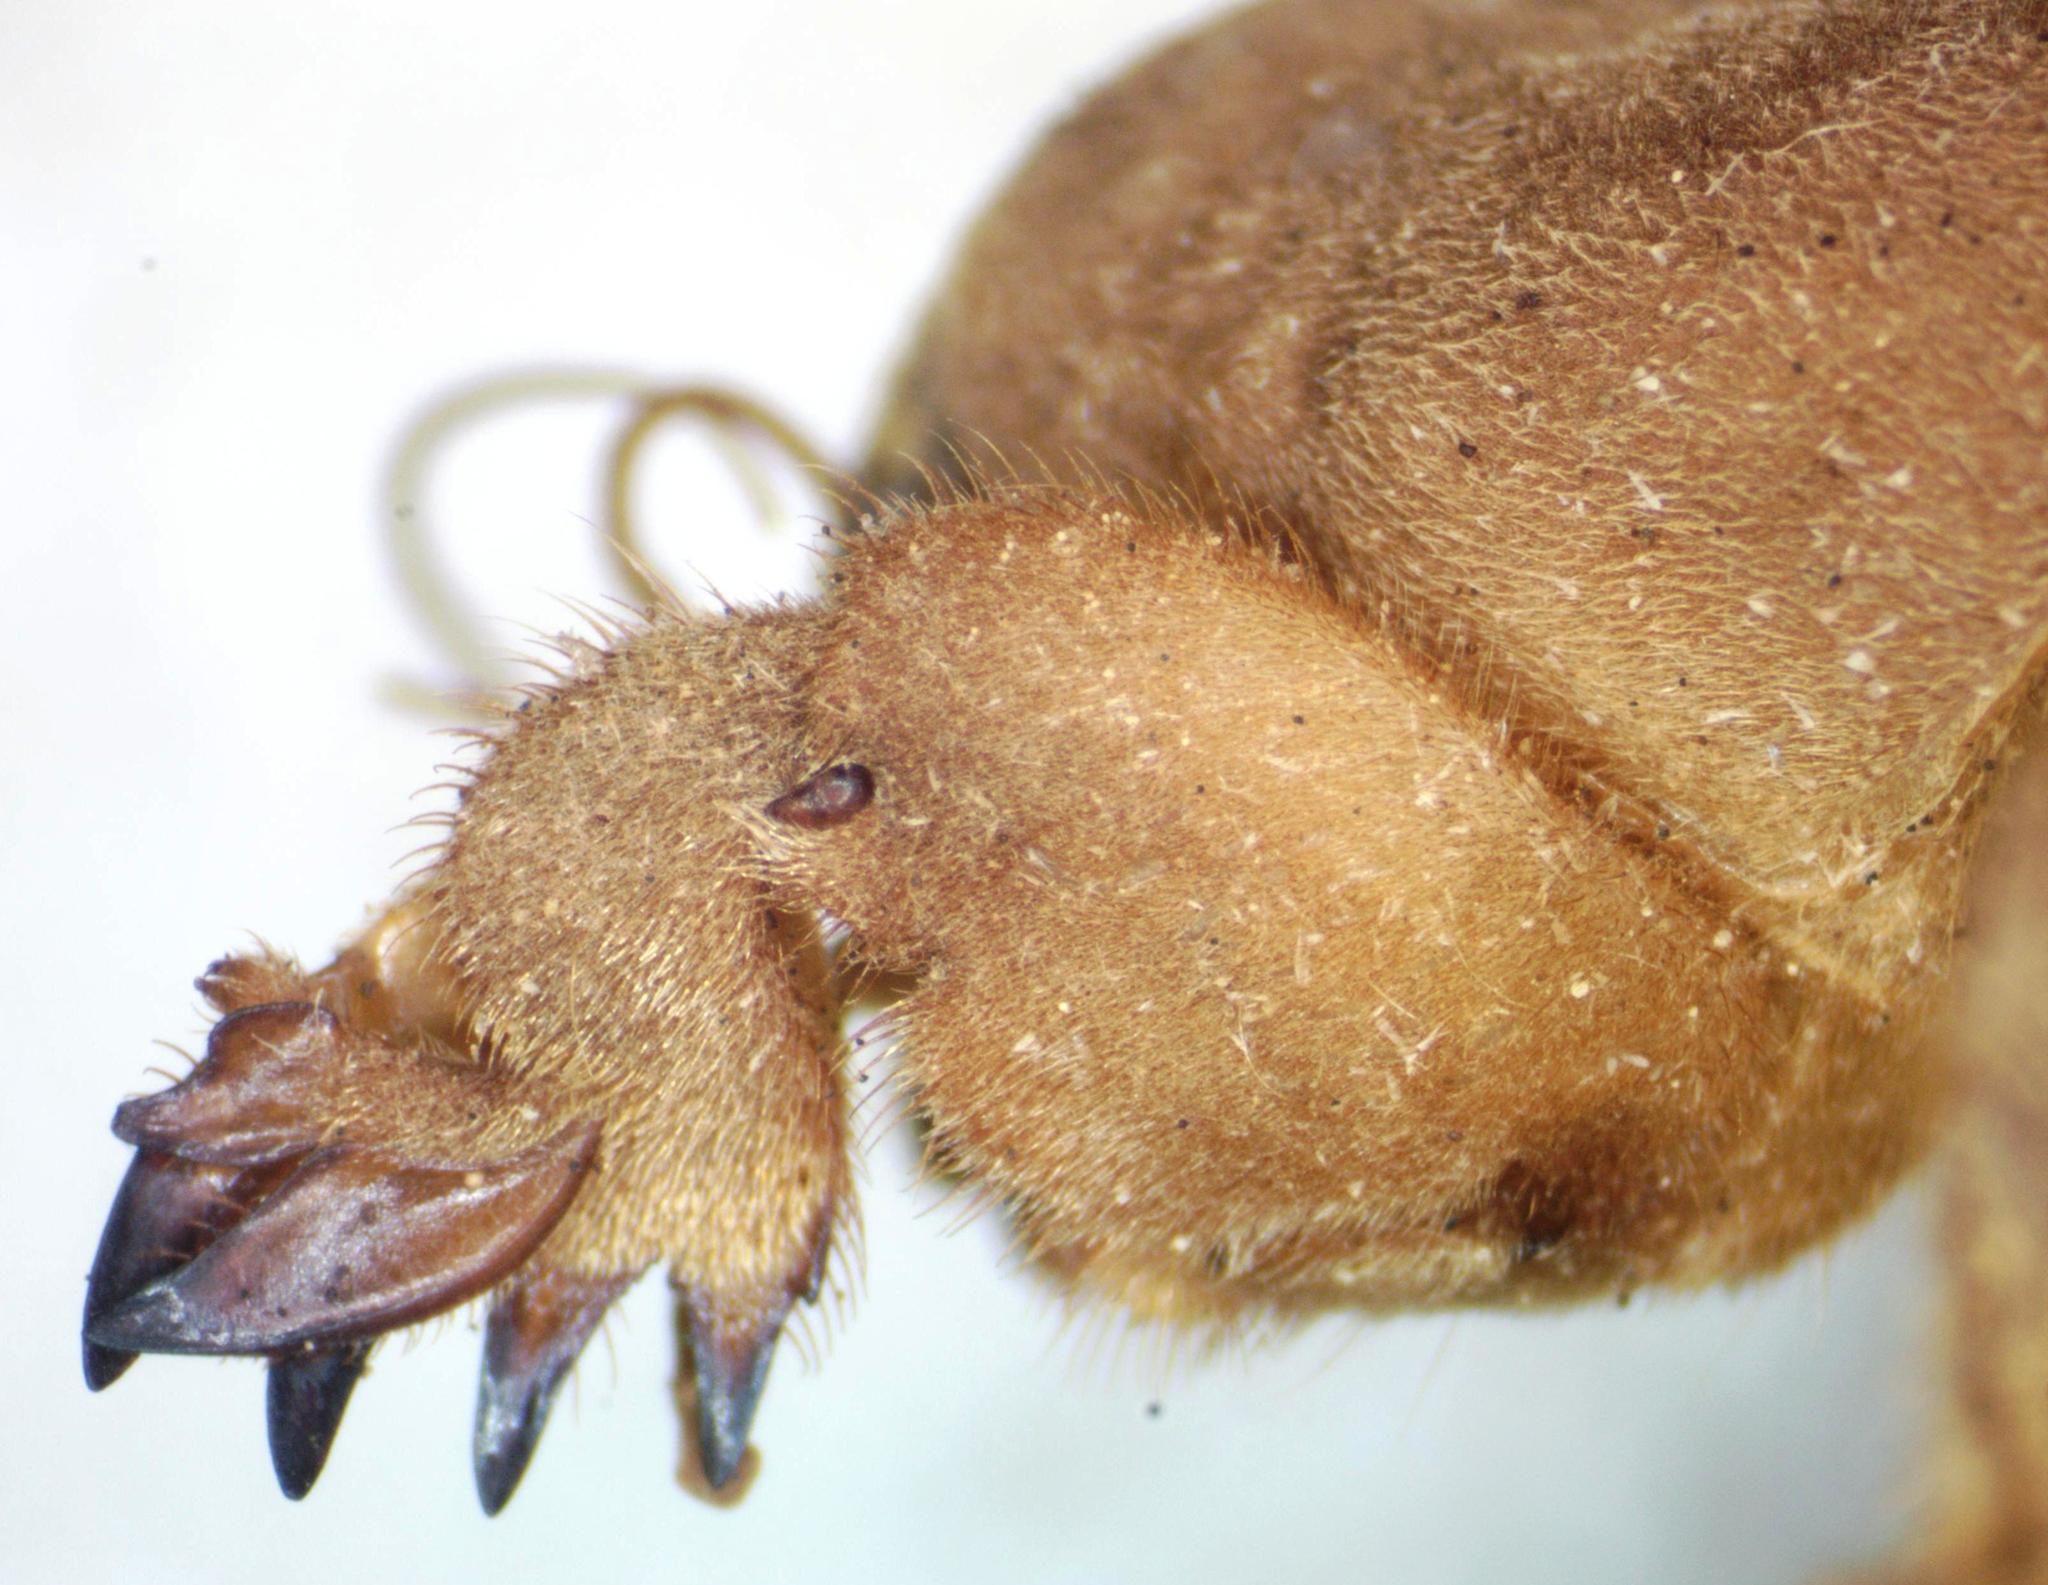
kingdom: Animalia
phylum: Arthropoda
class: Insecta
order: Orthoptera
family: Gryllotalpidae
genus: Neocurtilla
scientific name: Neocurtilla hexadactyla
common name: Northern mole cricket
